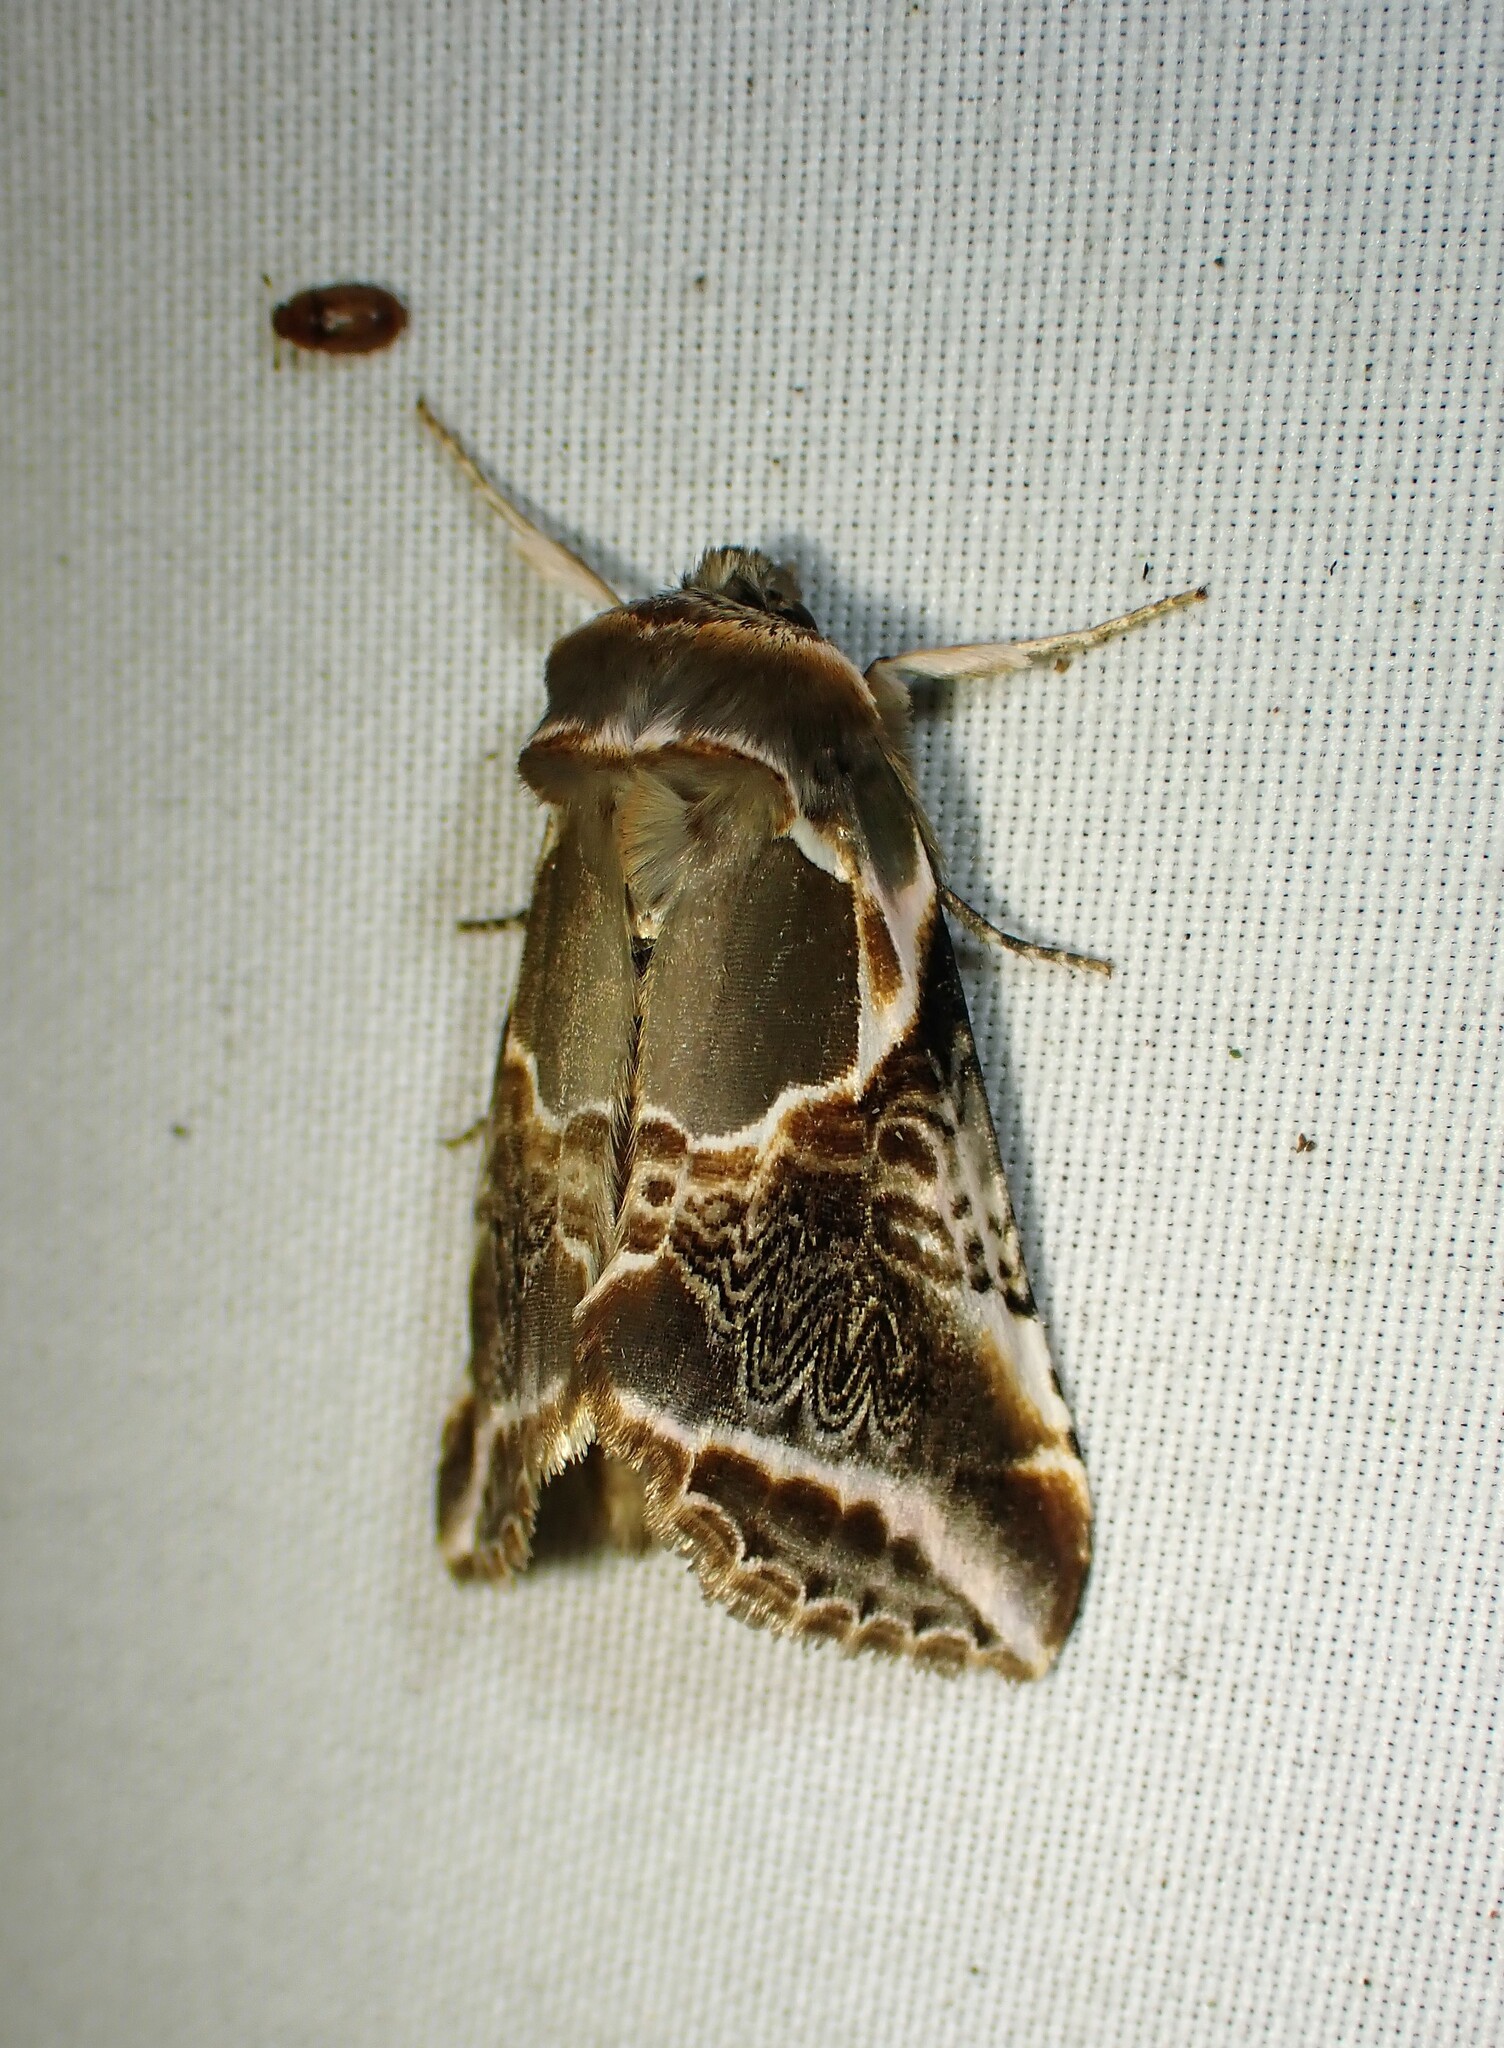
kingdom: Animalia
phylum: Arthropoda
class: Insecta
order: Lepidoptera
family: Drepanidae
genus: Habrosyne
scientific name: Habrosyne scripta
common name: Lettered habrosyne moth
